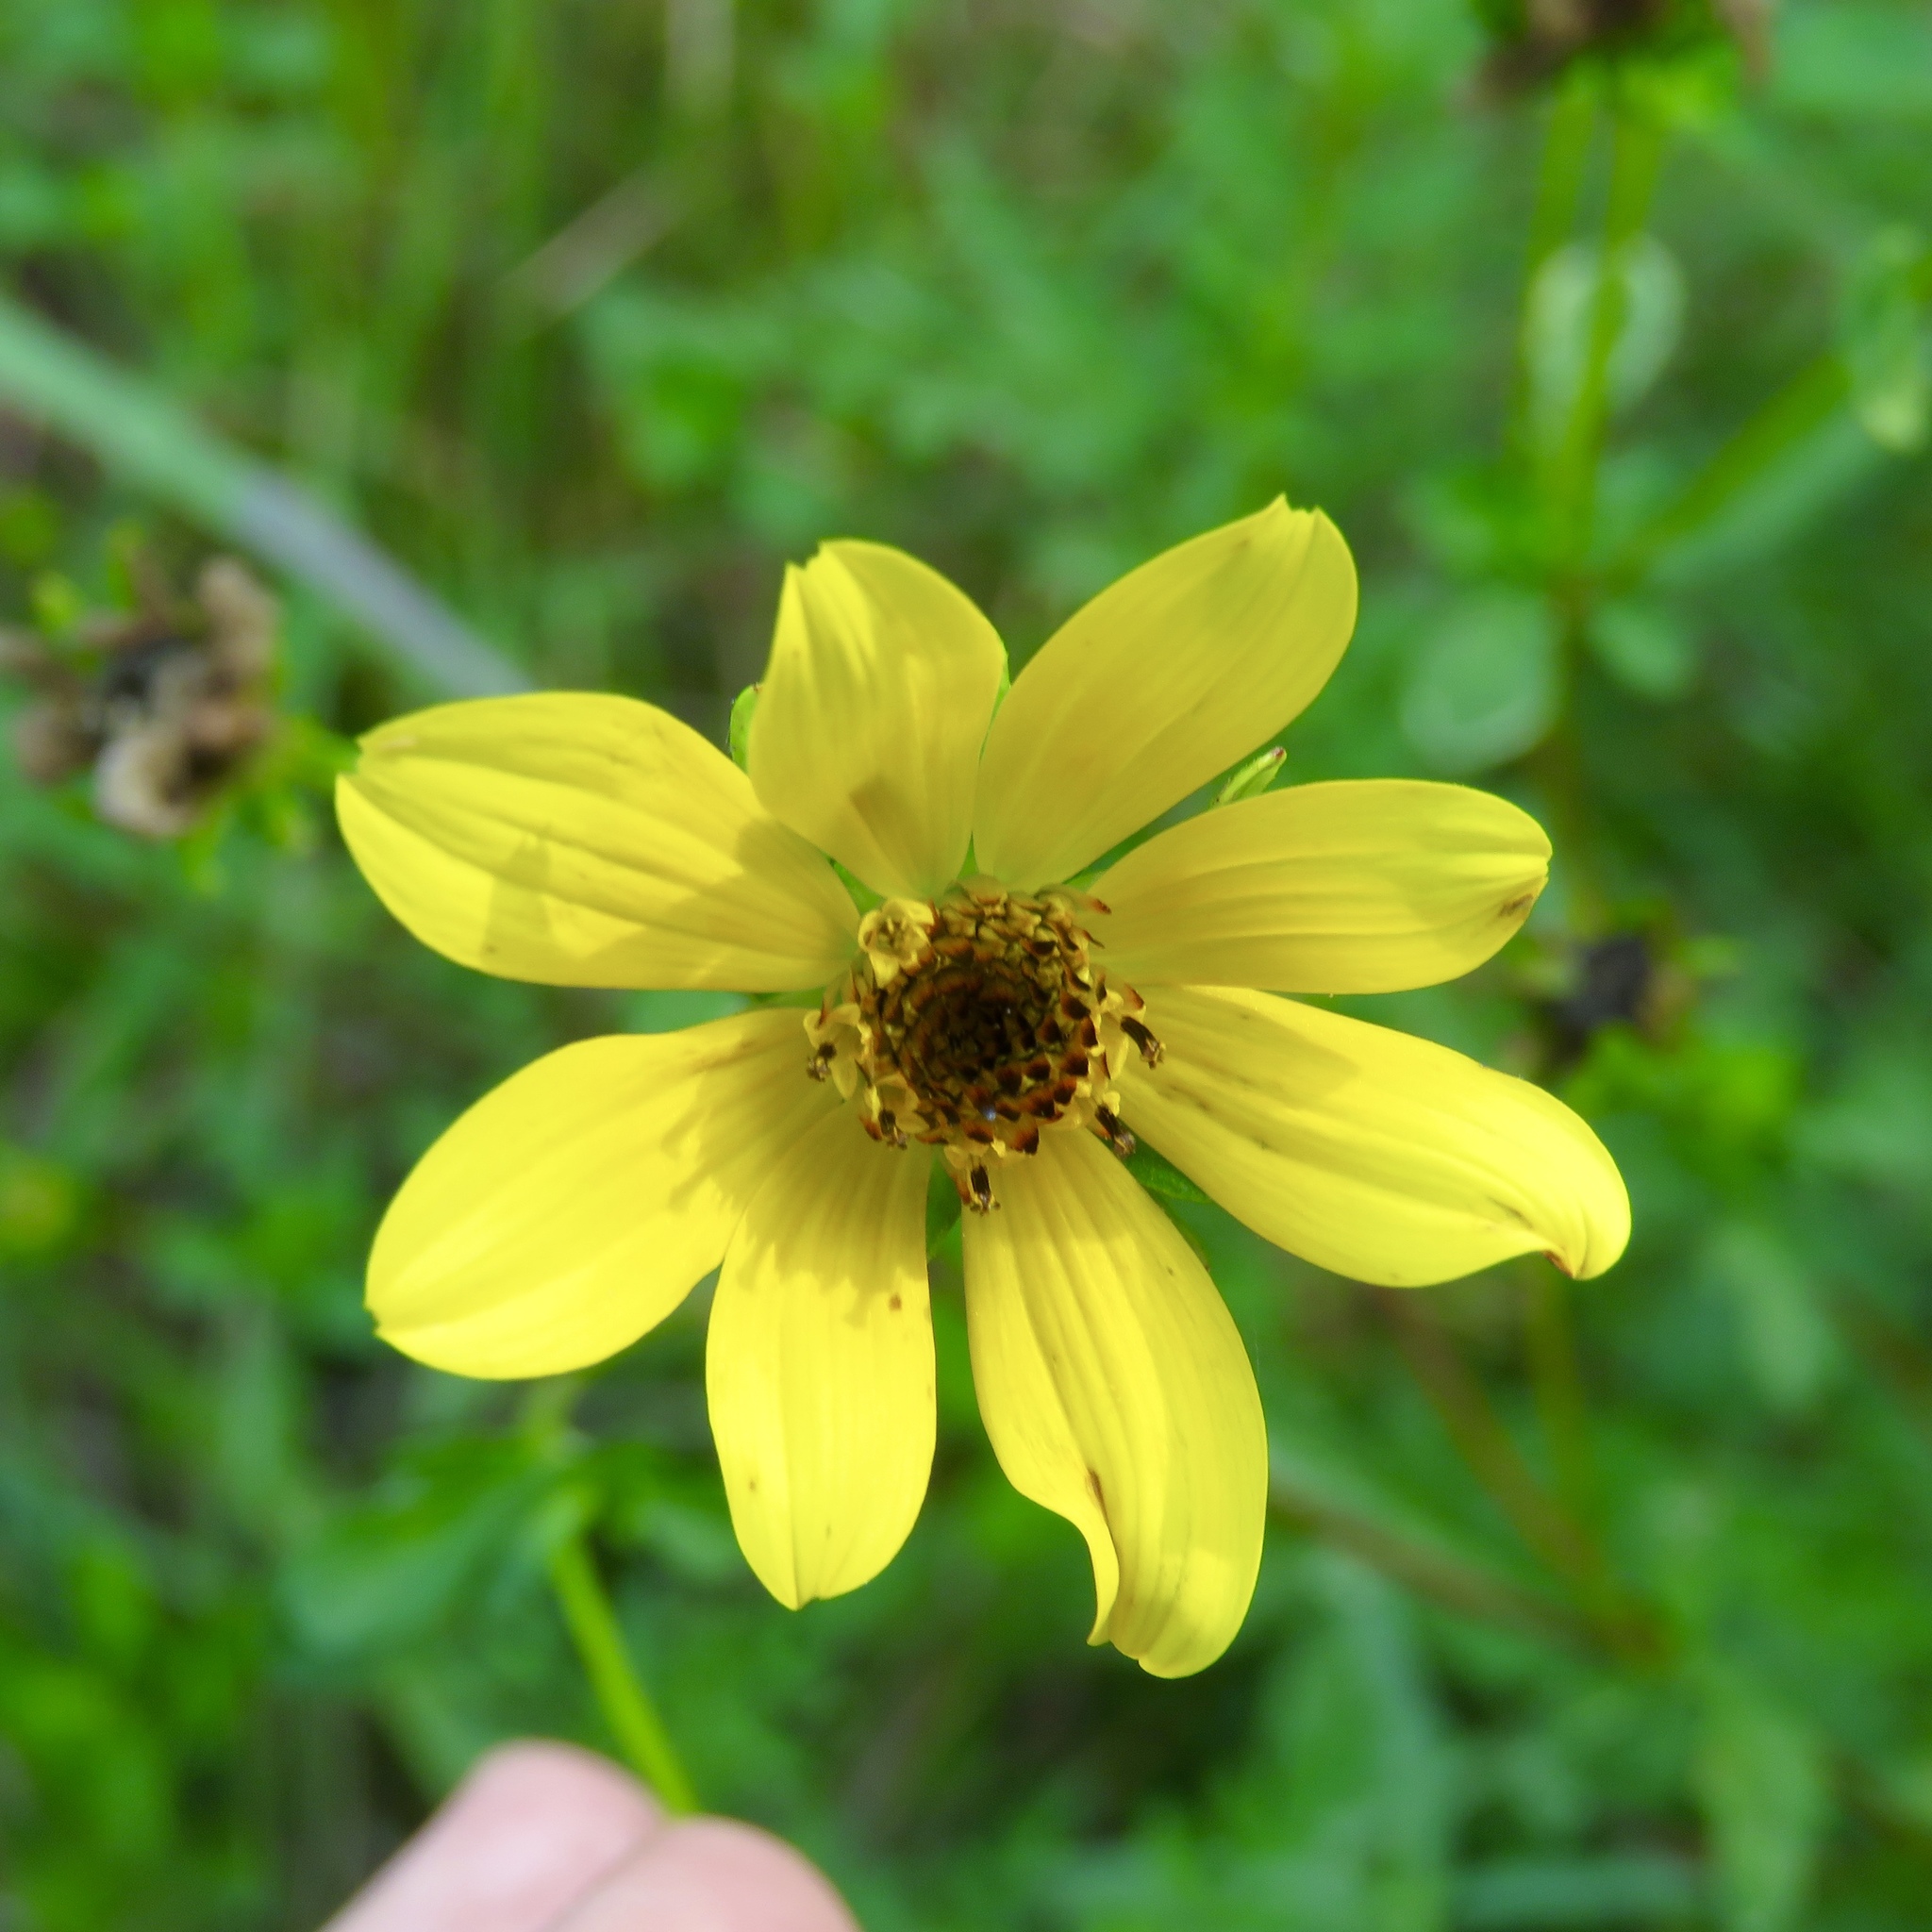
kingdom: Plantae
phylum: Tracheophyta
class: Magnoliopsida
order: Asterales
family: Asteraceae
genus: Bidens
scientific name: Bidens aristosa
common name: Western tickseed
